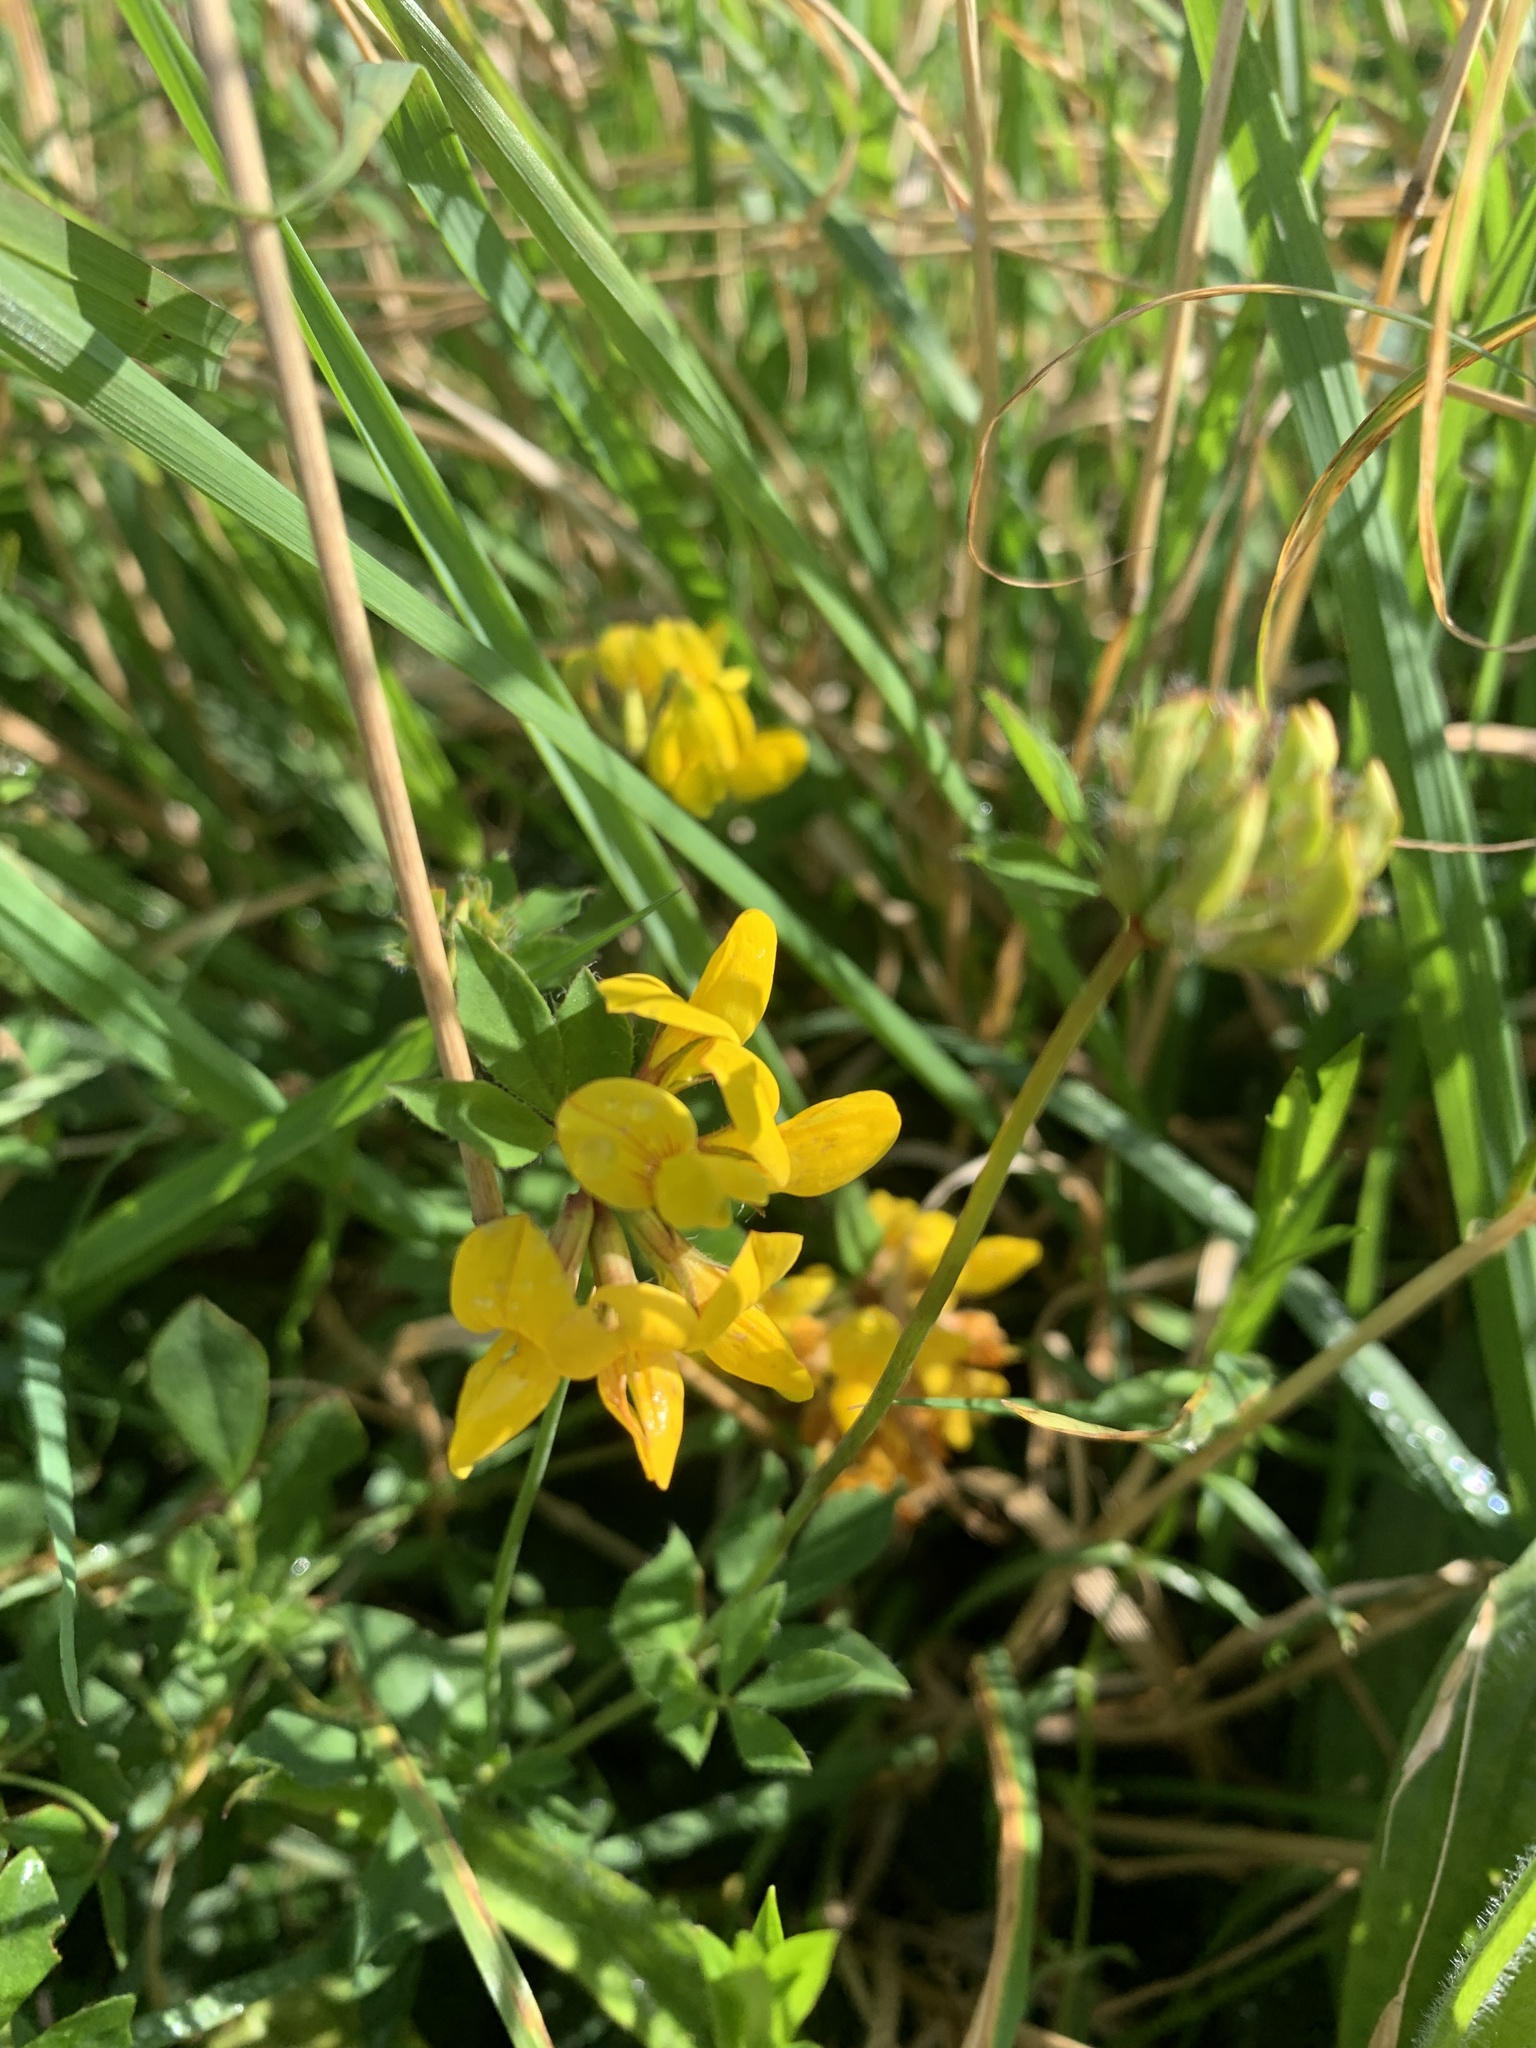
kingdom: Plantae
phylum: Tracheophyta
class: Magnoliopsida
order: Fabales
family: Fabaceae
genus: Lotus
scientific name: Lotus corniculatus
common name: Common bird's-foot-trefoil
